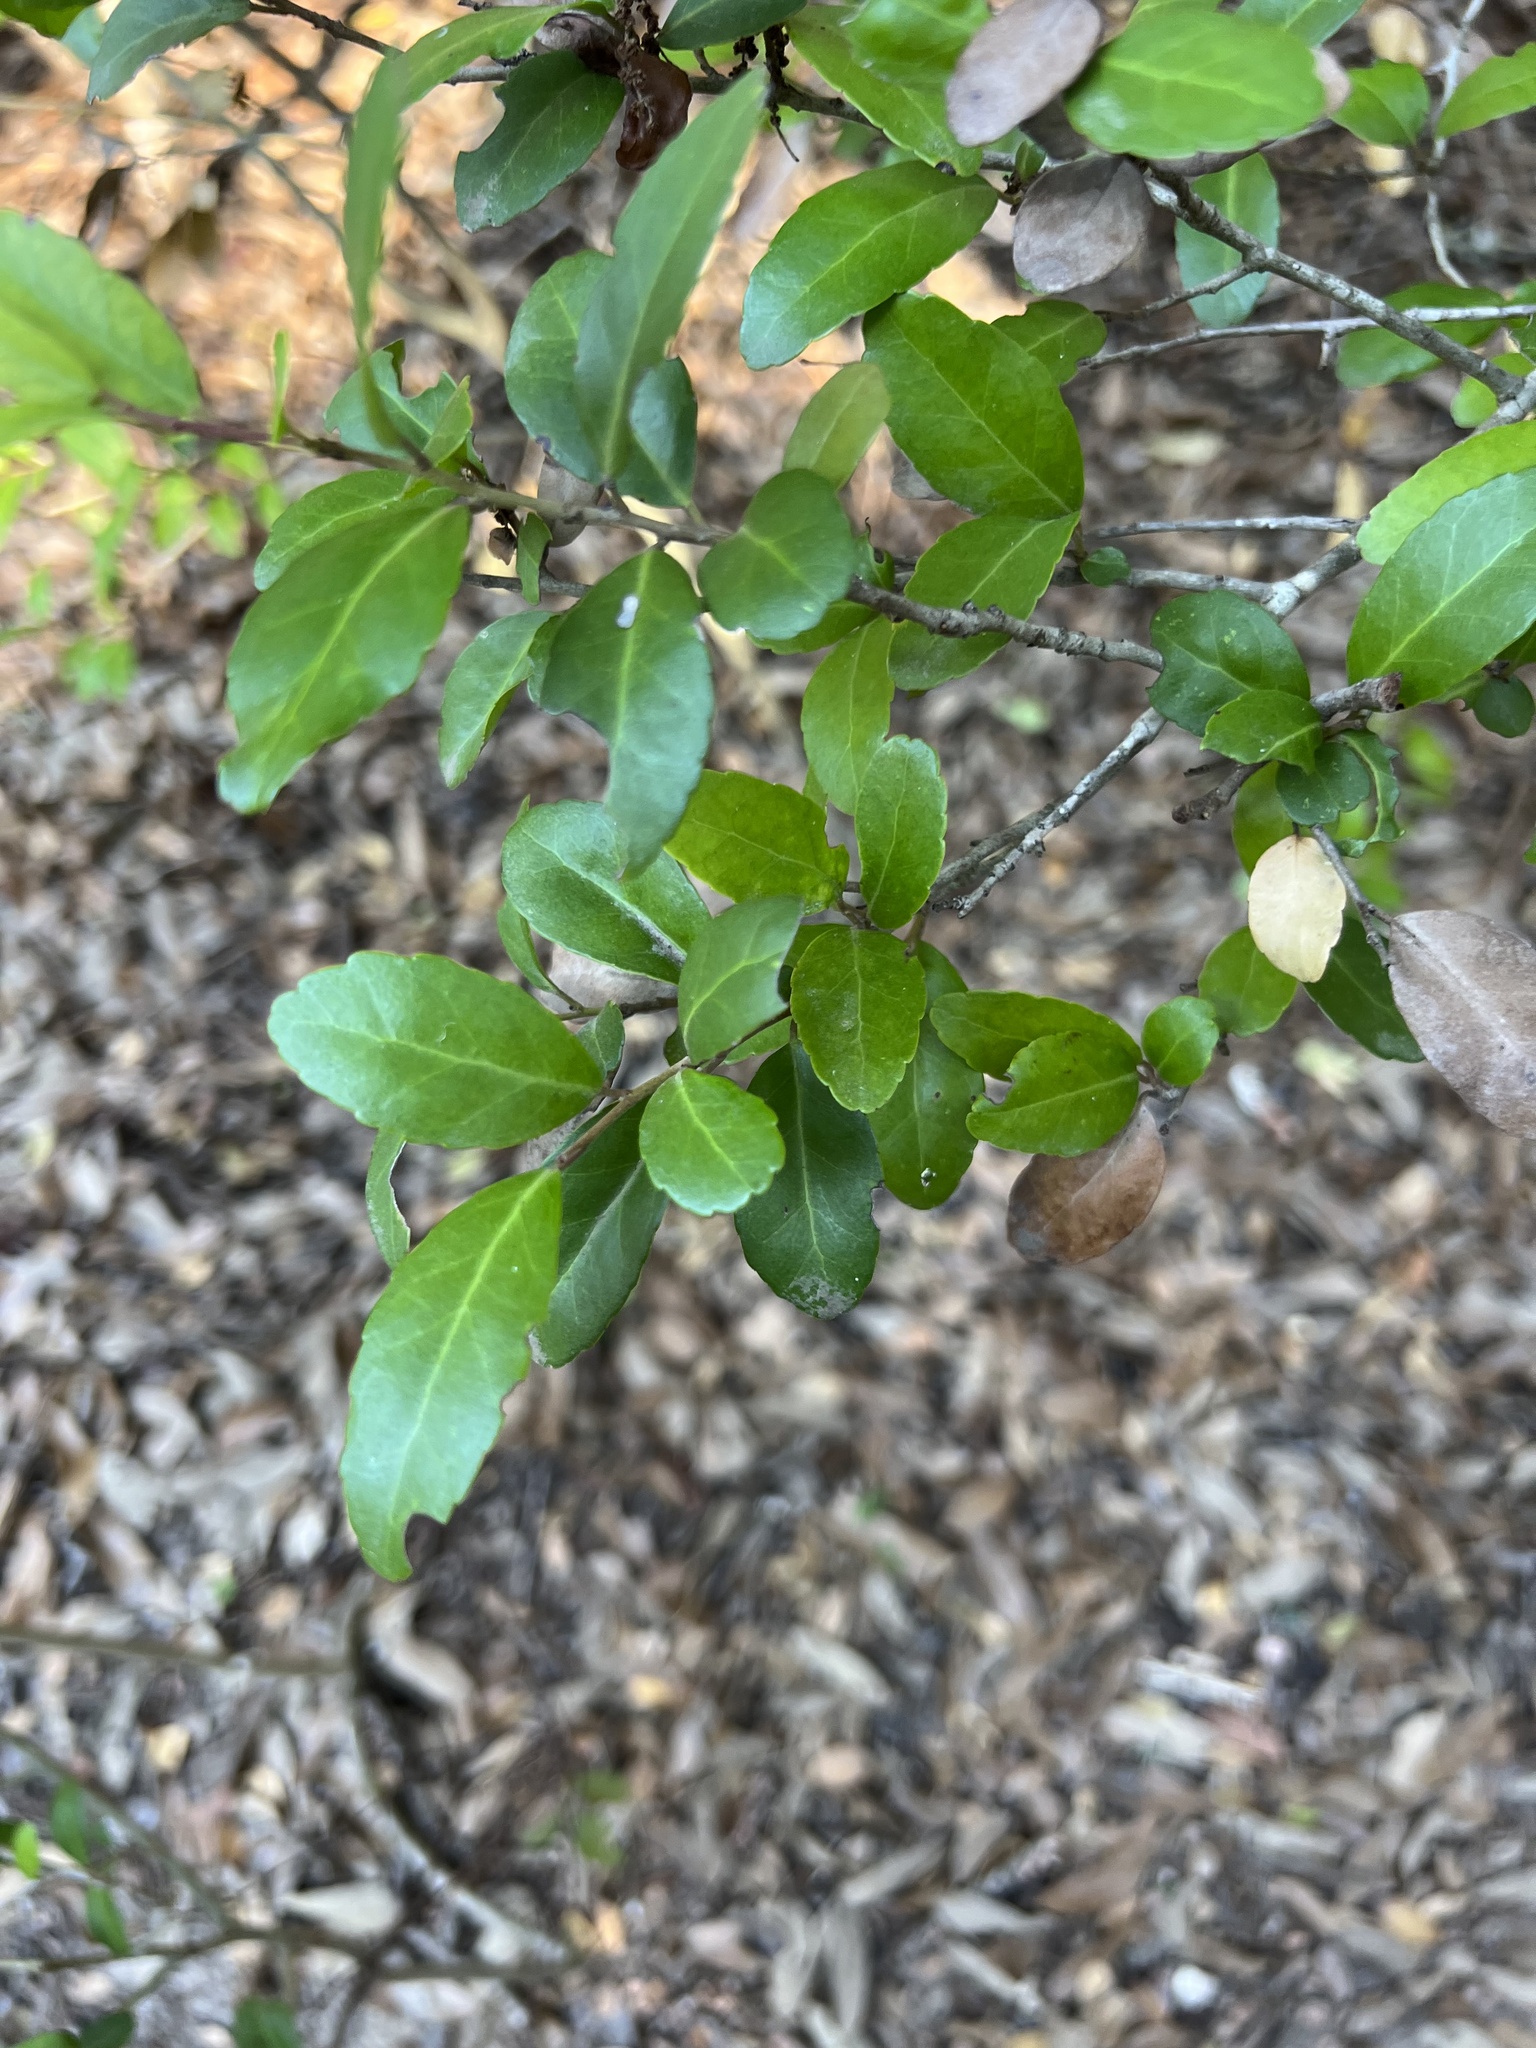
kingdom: Plantae
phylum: Tracheophyta
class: Magnoliopsida
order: Aquifoliales
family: Aquifoliaceae
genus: Ilex
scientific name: Ilex vomitoria
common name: Yaupon holly
